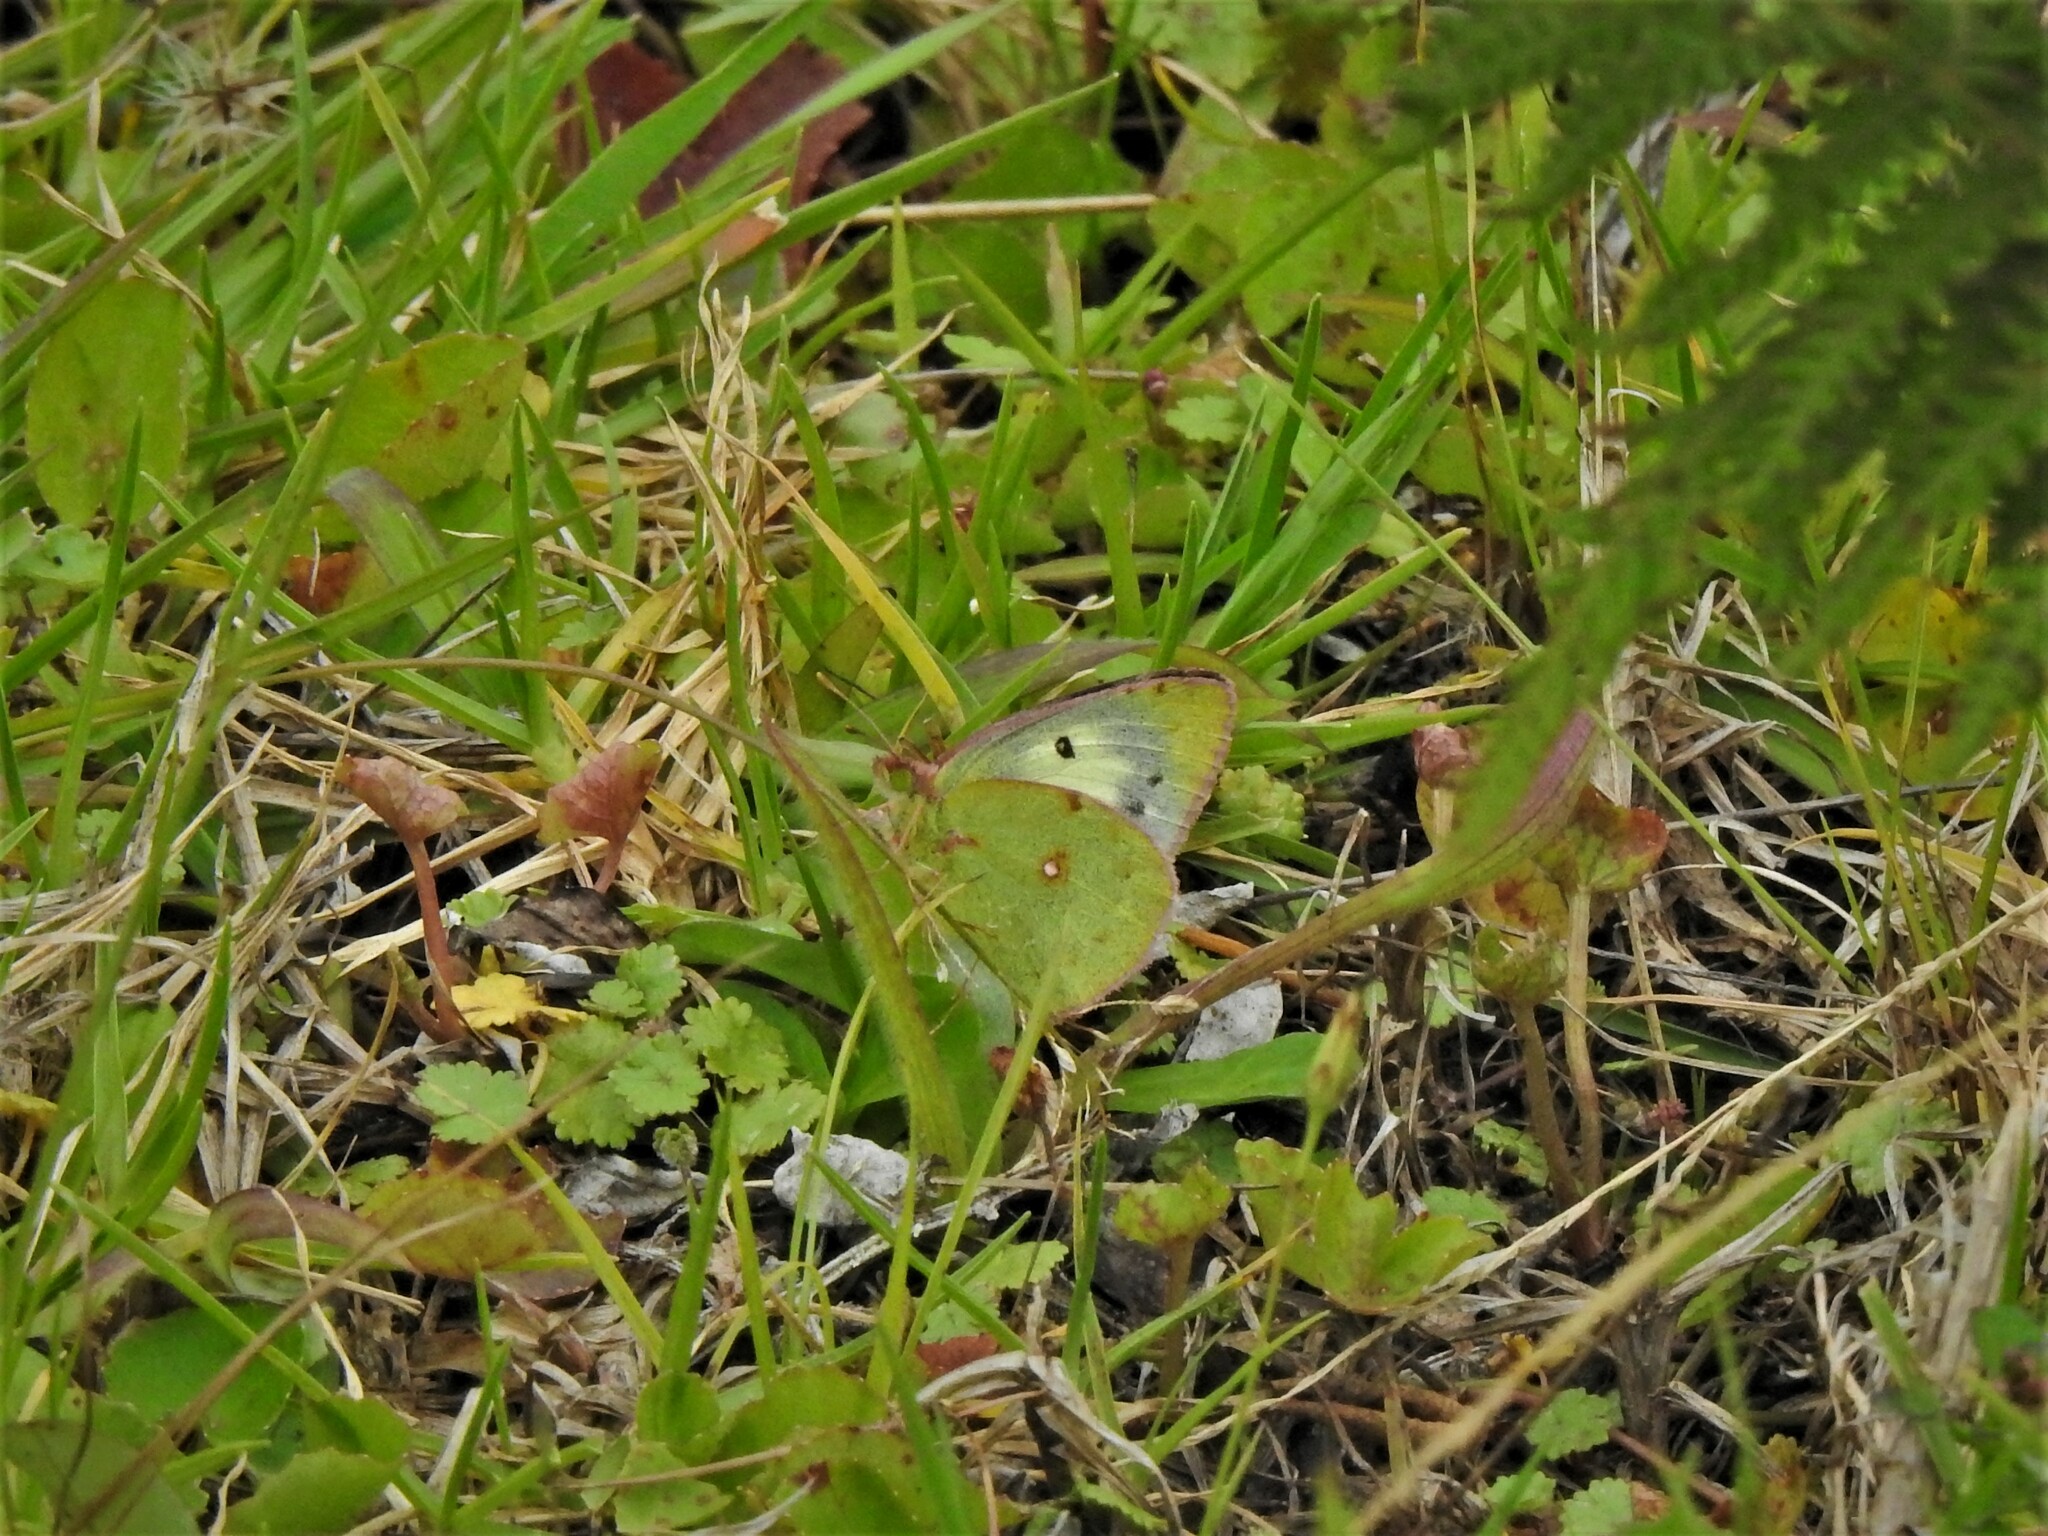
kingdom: Animalia
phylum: Arthropoda
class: Insecta
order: Lepidoptera
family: Pieridae
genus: Colias
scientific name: Colias nilagiriensis
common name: Nilgiri clouded yellow
